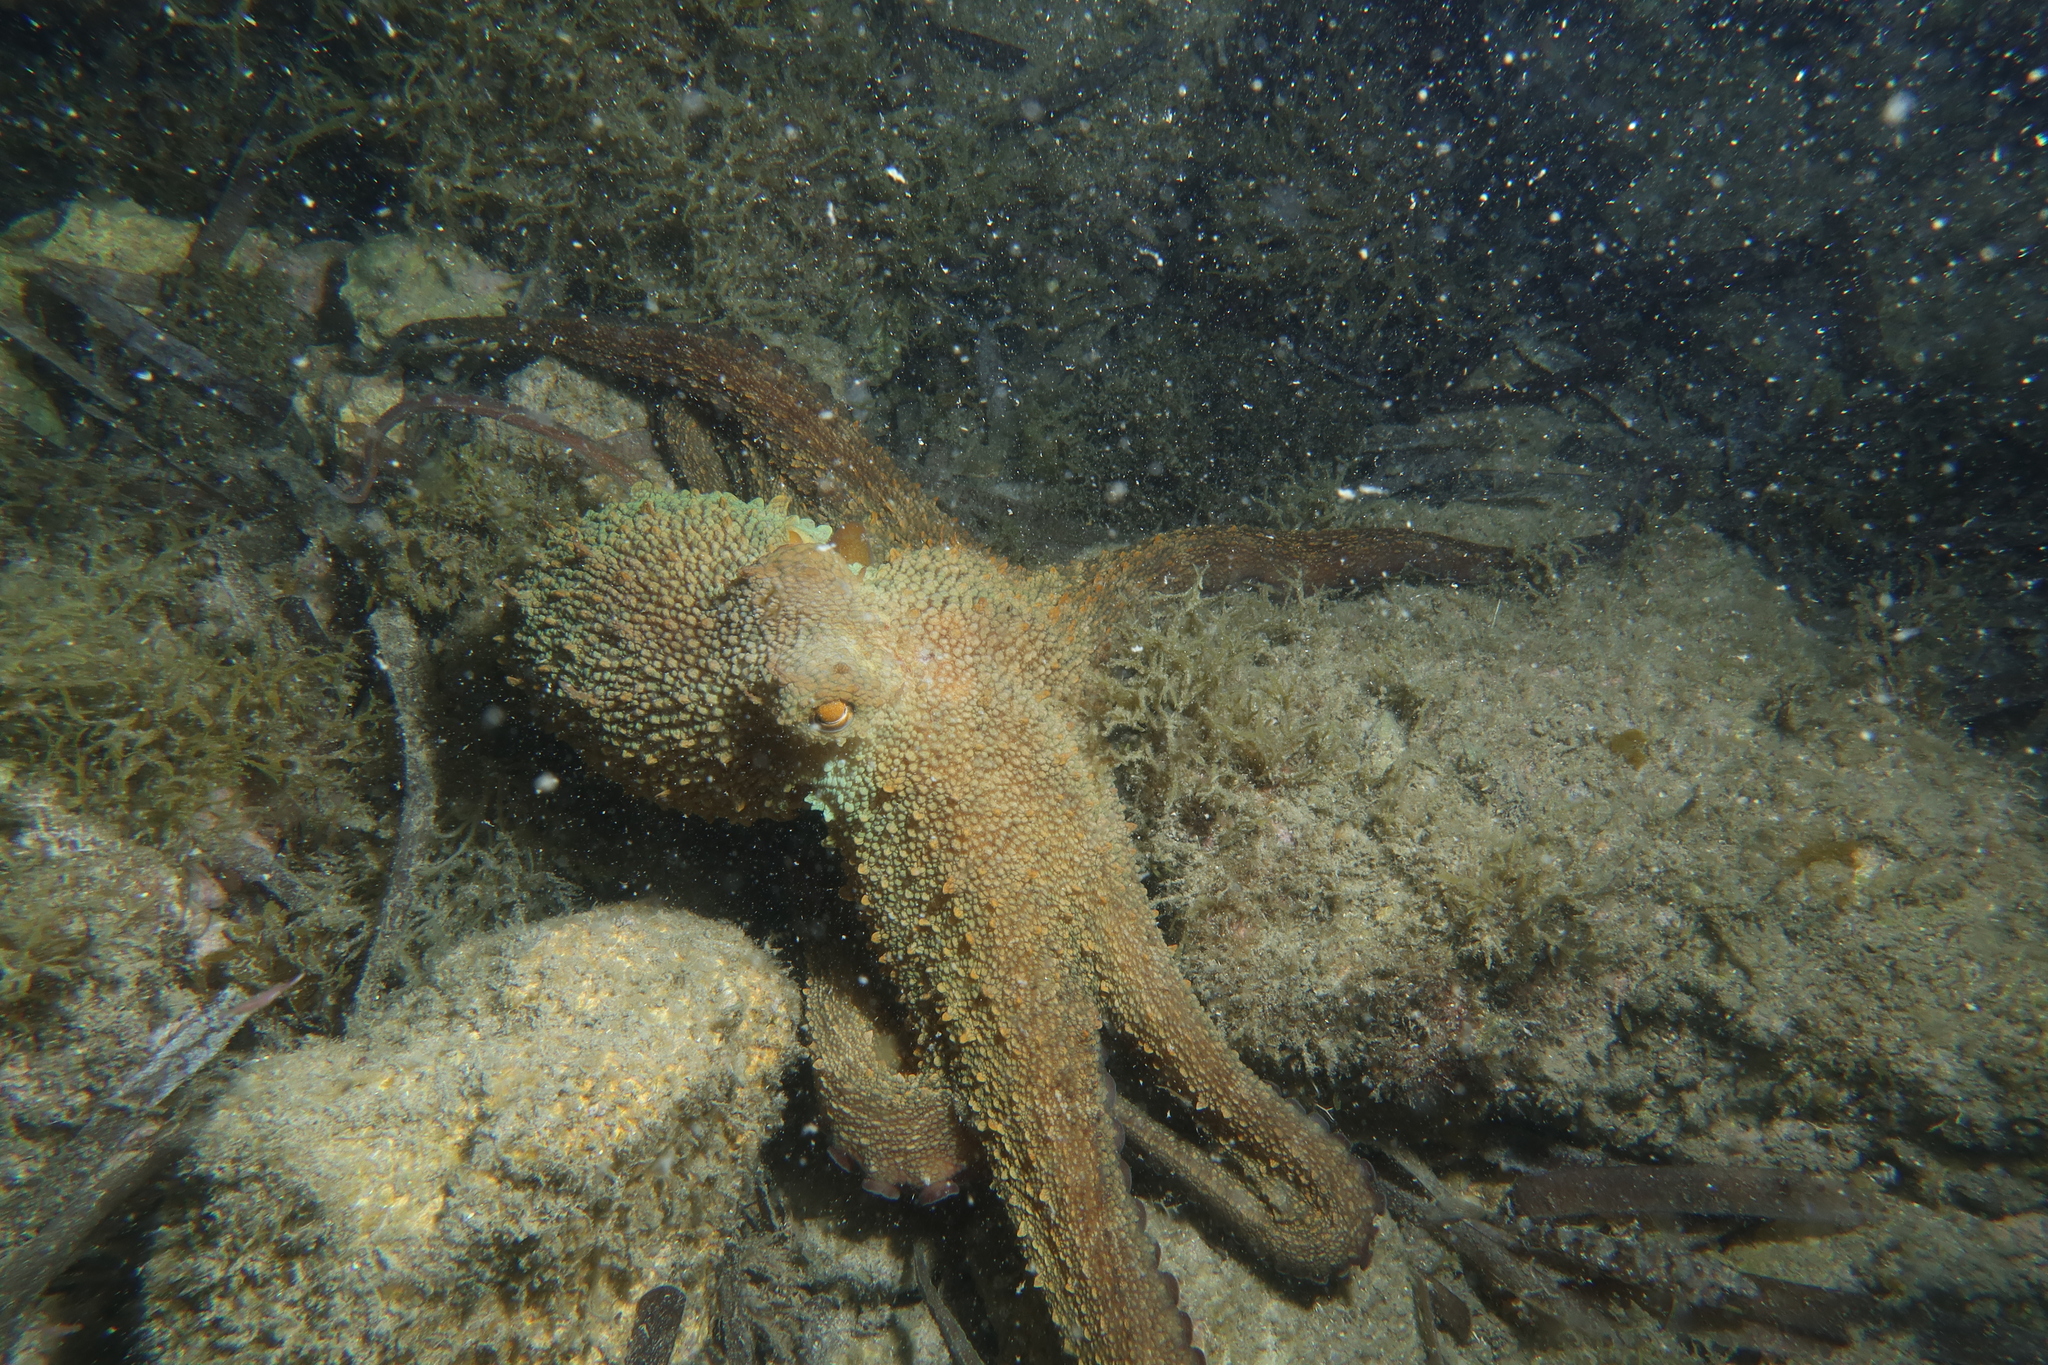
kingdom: Animalia
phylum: Mollusca
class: Cephalopoda
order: Octopoda
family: Octopodidae
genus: Octopus
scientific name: Octopus vulgaris
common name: Common octopus
